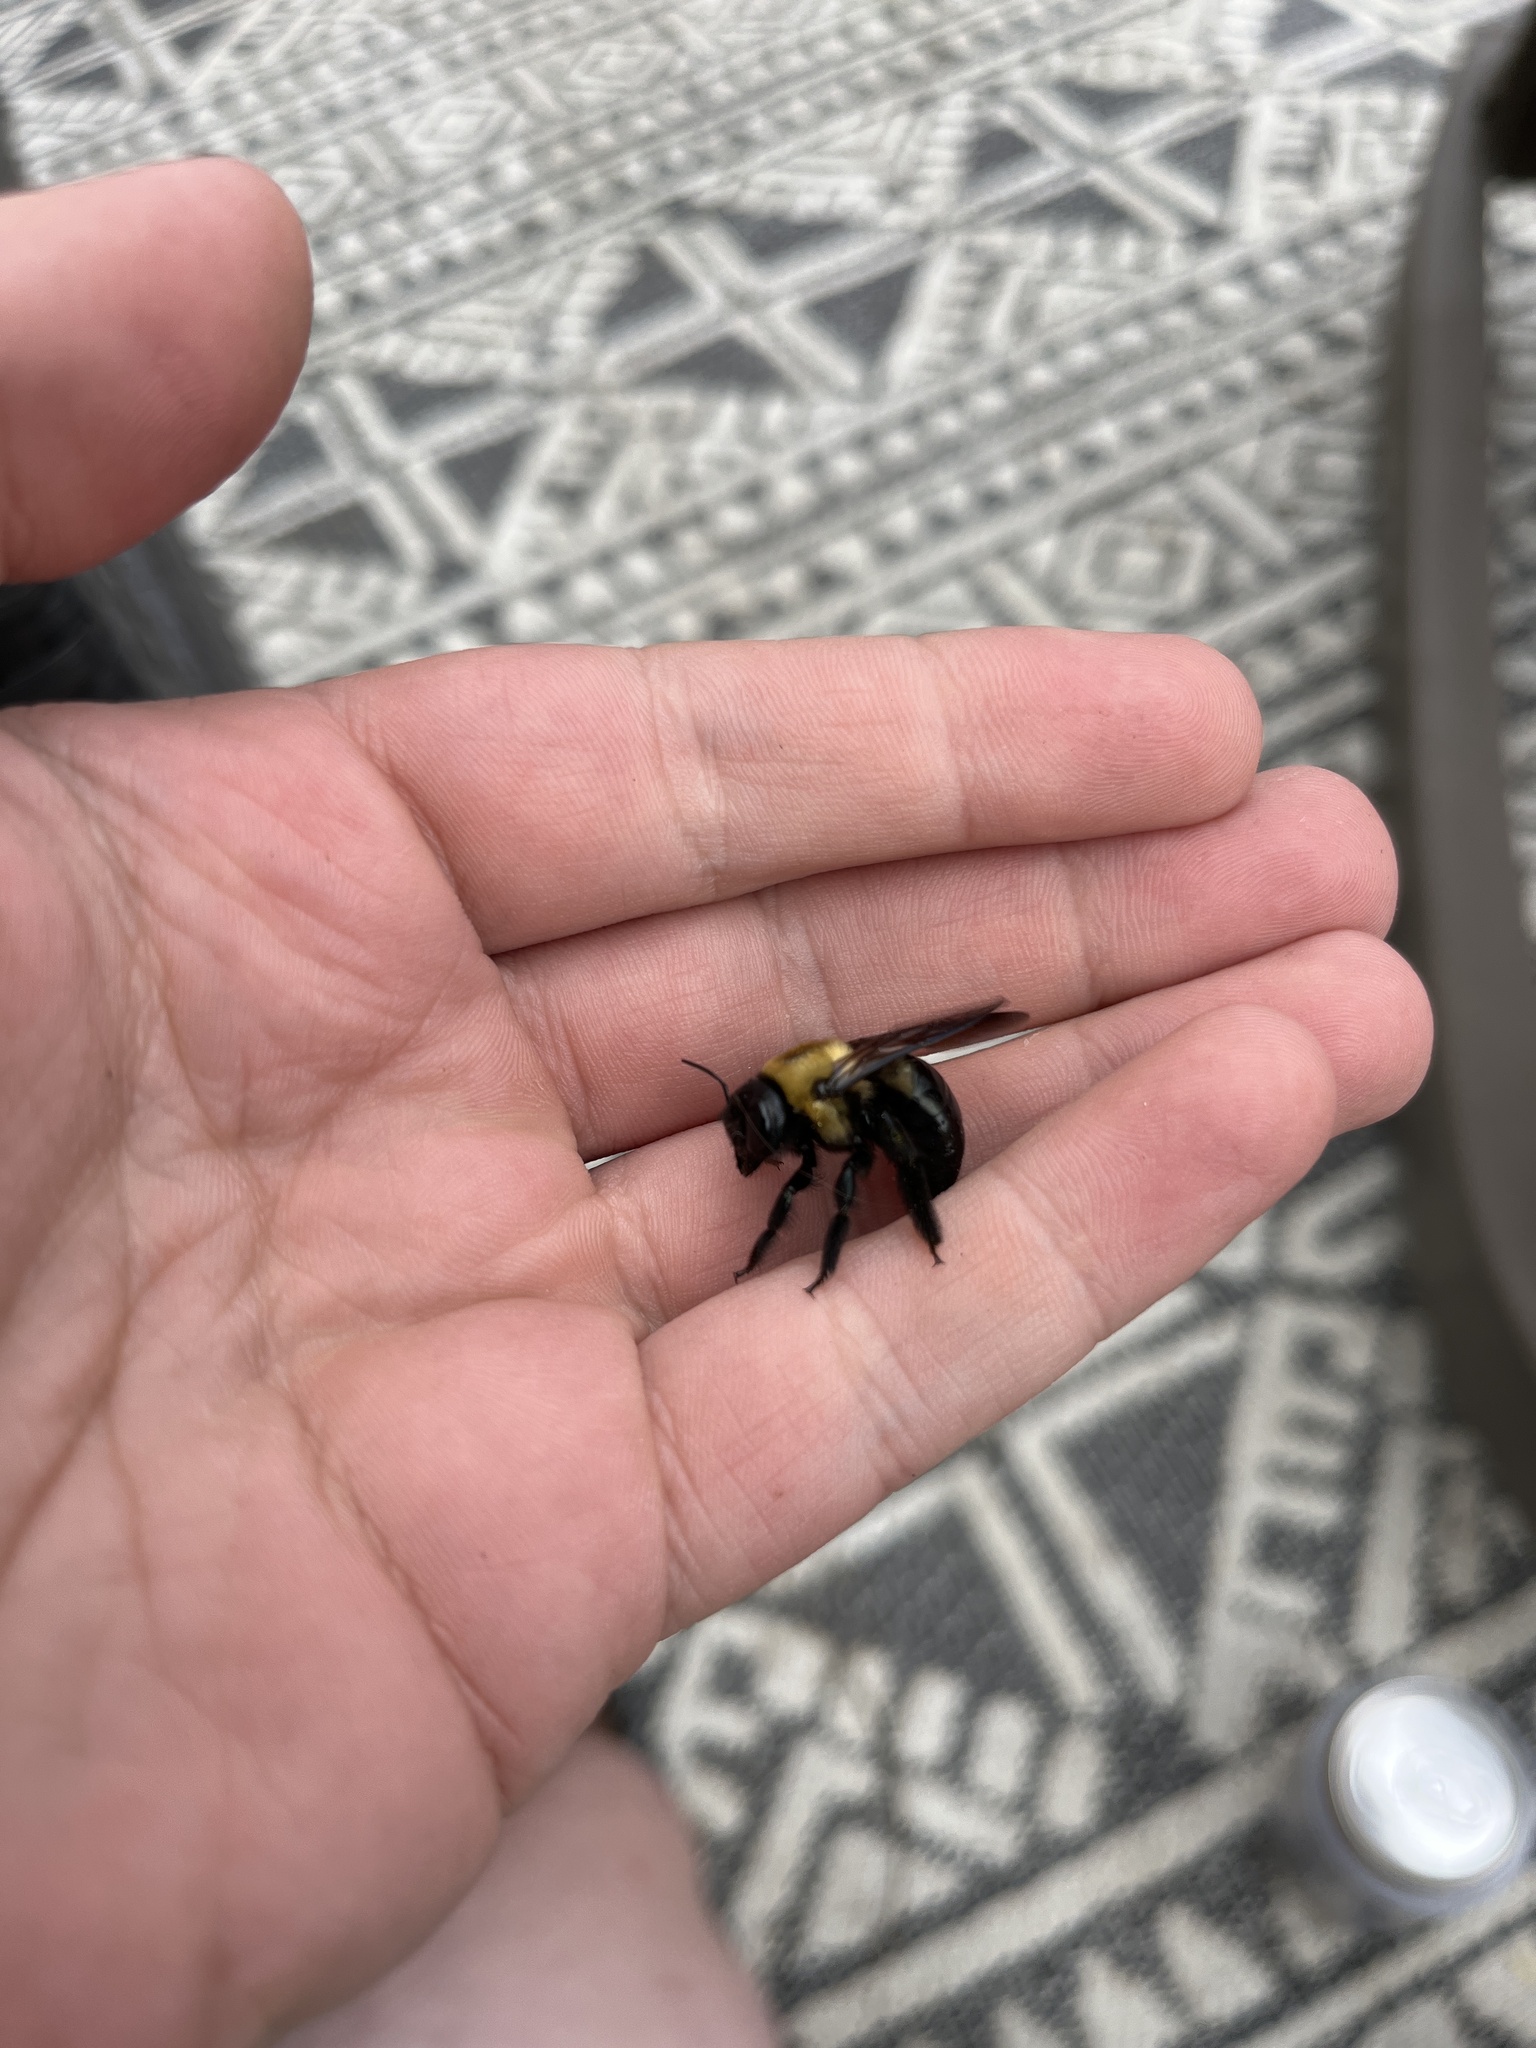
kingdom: Animalia
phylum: Arthropoda
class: Insecta
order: Hymenoptera
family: Apidae
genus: Xylocopa
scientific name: Xylocopa virginica
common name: Carpenter bee
